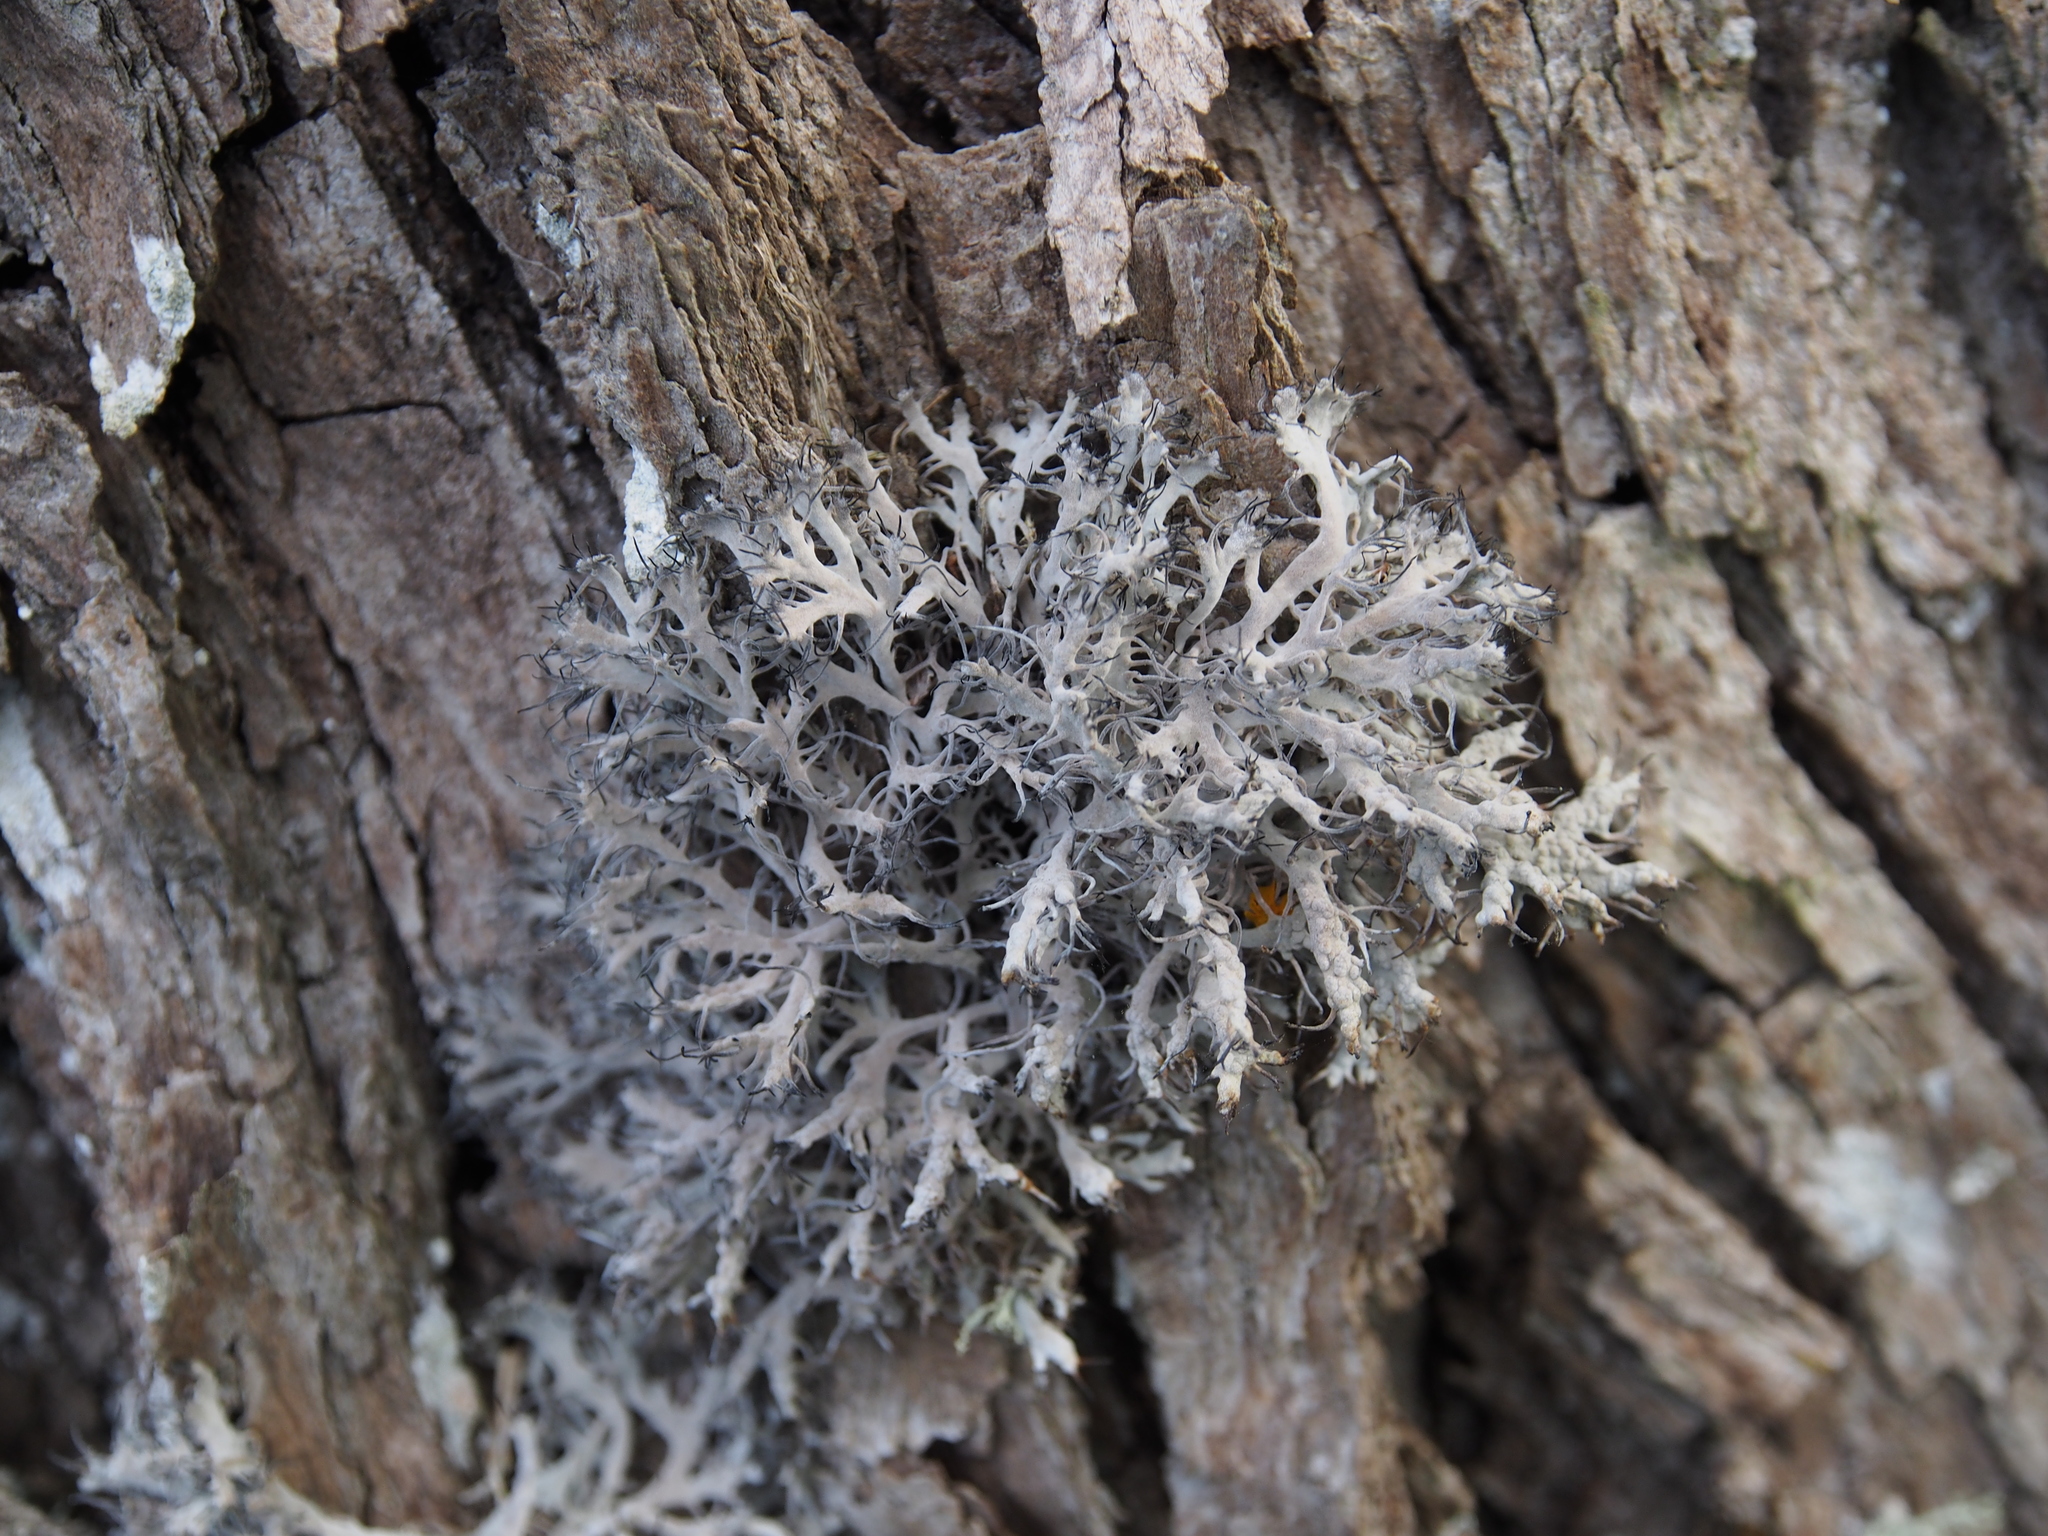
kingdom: Fungi
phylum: Ascomycota
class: Lecanoromycetes
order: Caliciales
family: Physciaceae
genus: Anaptychia
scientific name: Anaptychia ciliaris
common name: Great ciliated lichen
